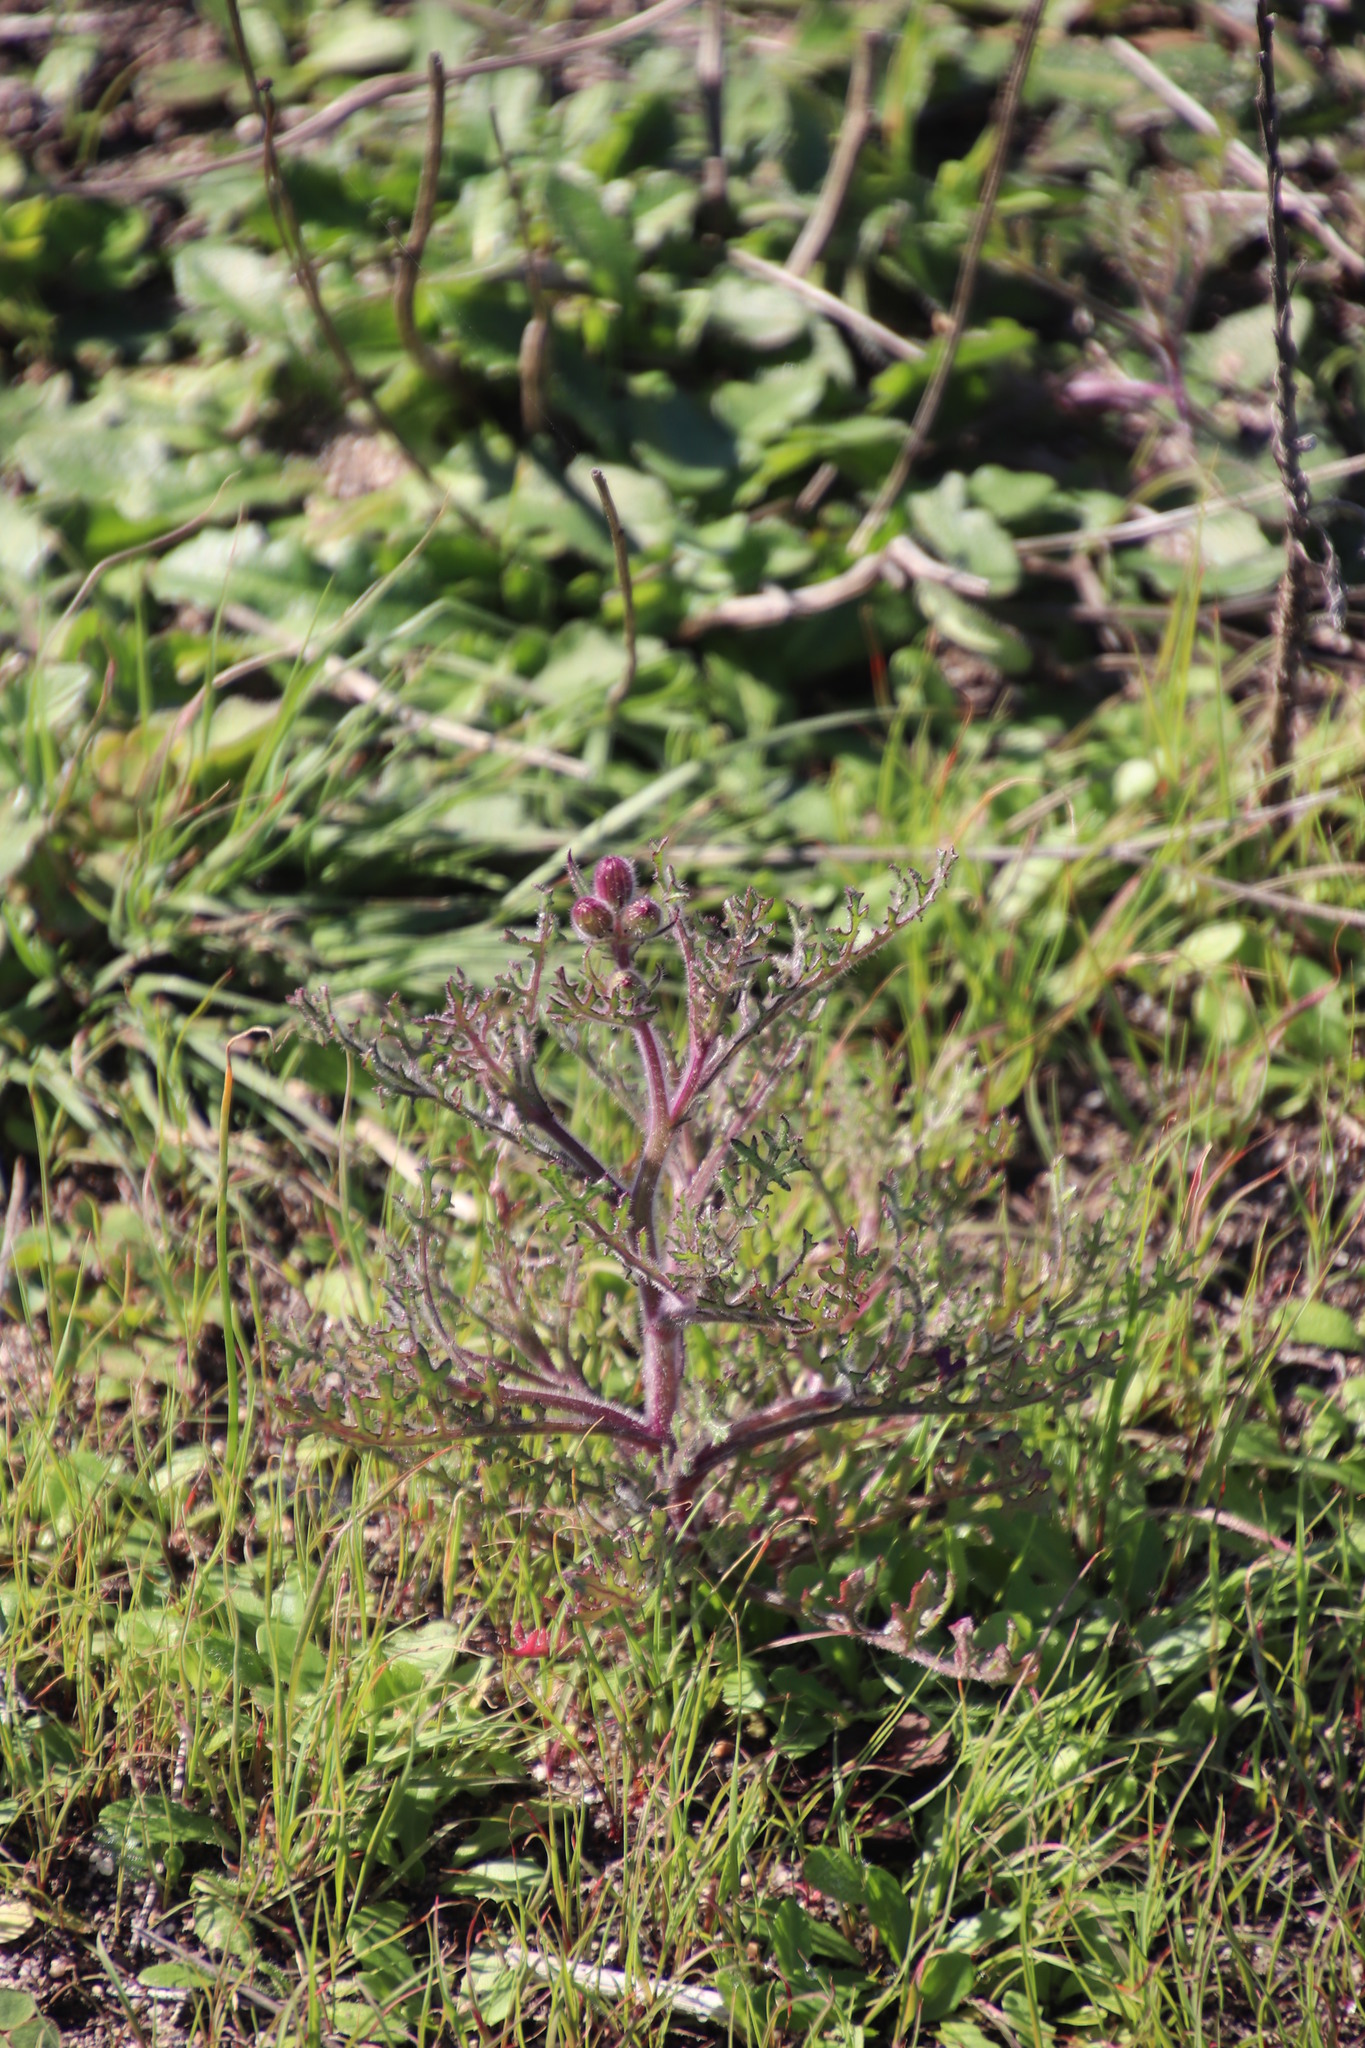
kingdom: Plantae
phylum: Tracheophyta
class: Magnoliopsida
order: Asterales
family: Asteraceae
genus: Senecio
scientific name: Senecio arenarius
